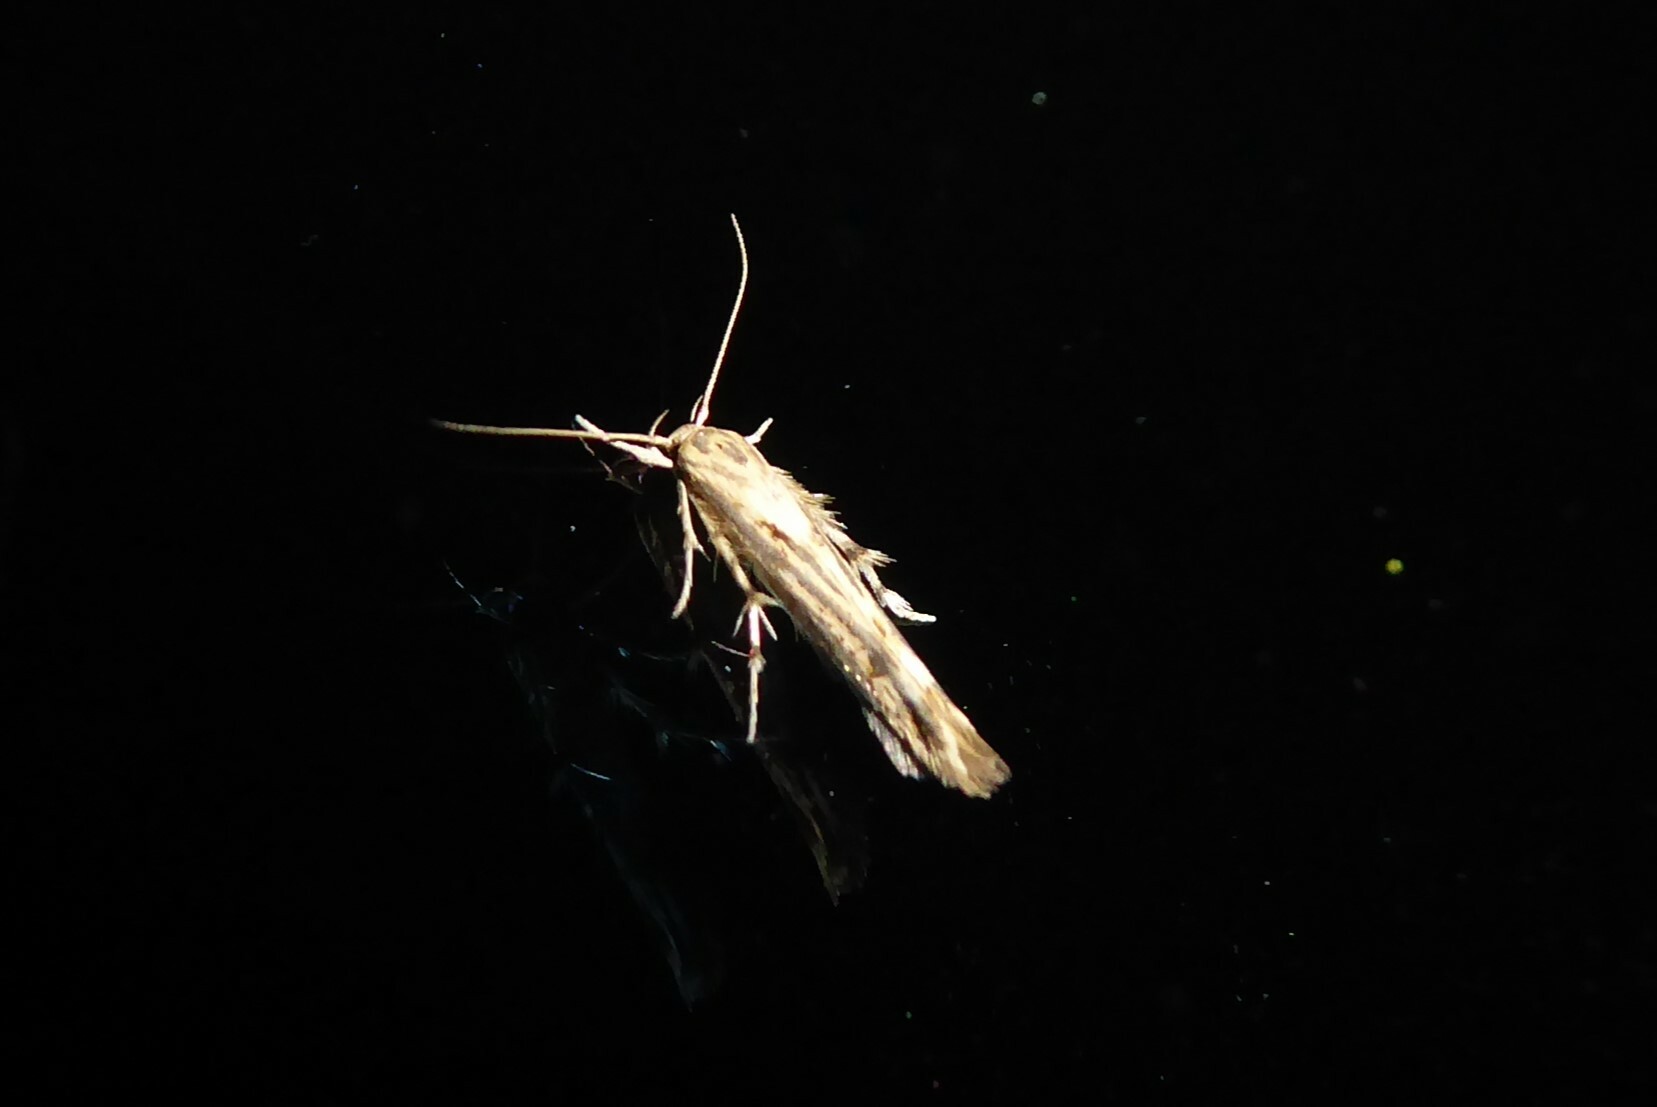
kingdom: Animalia
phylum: Arthropoda
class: Insecta
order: Lepidoptera
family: Stathmopodidae
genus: Stathmopoda
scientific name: Stathmopoda plumbiflua
